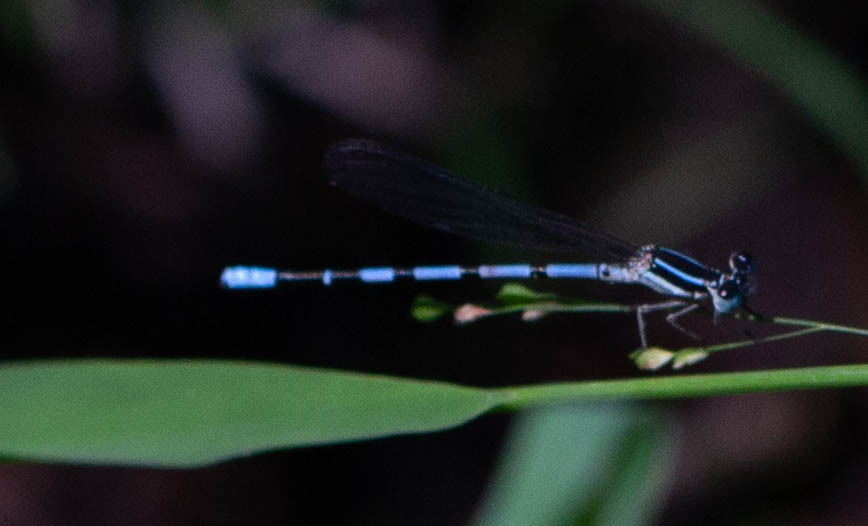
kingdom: Animalia
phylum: Arthropoda
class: Insecta
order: Odonata
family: Coenagrionidae
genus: Argia
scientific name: Argia bipunctulata
